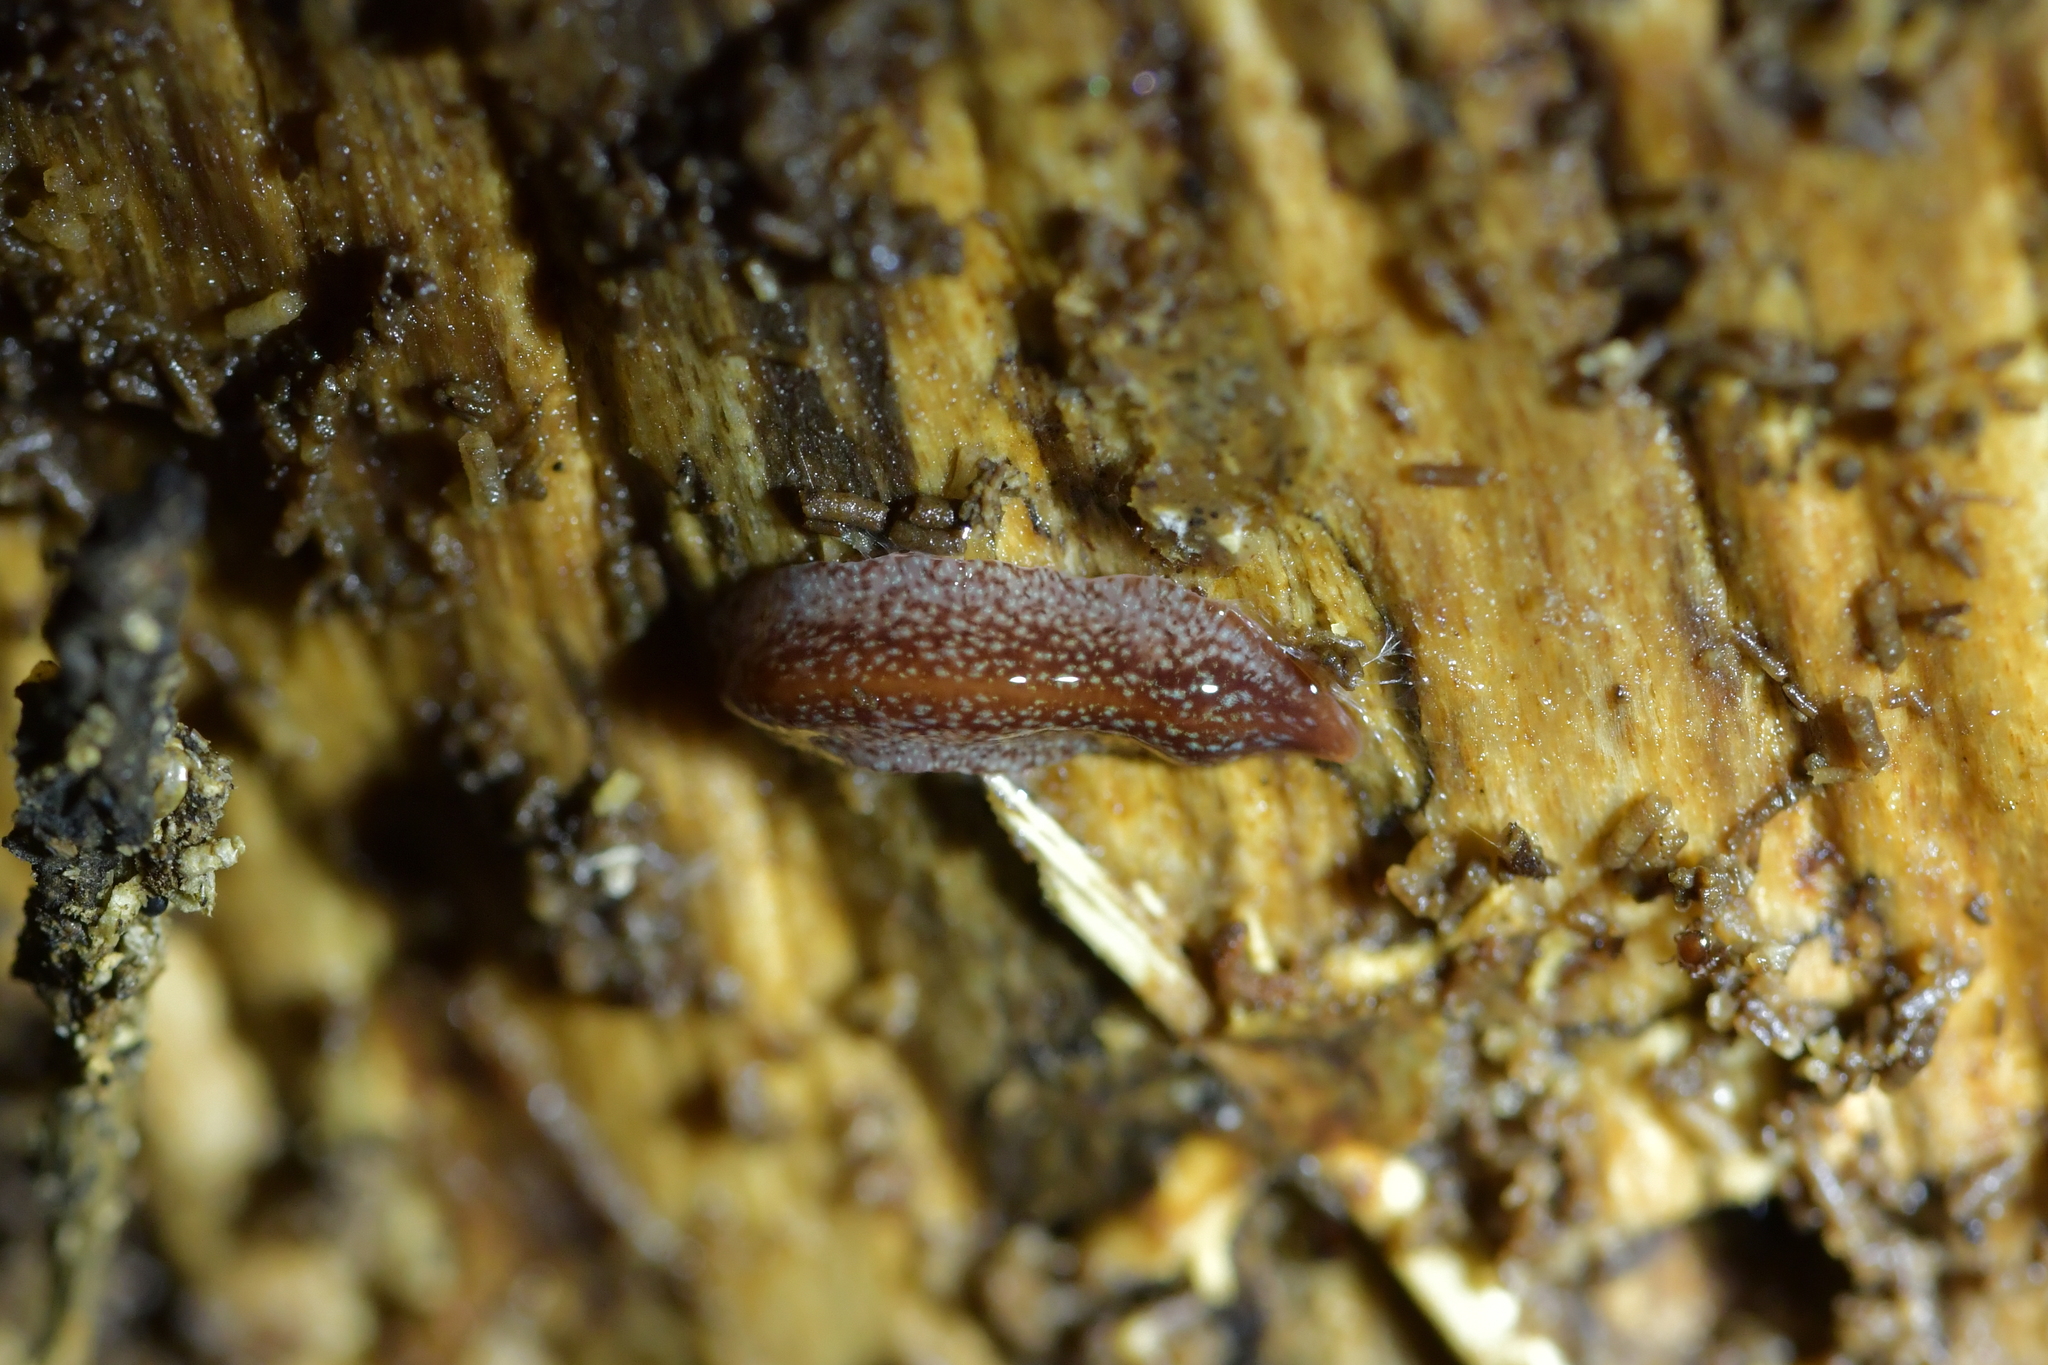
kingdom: Animalia
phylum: Platyhelminthes
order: Tricladida
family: Geoplanidae
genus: Australopacifica
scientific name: Australopacifica spectabilis
